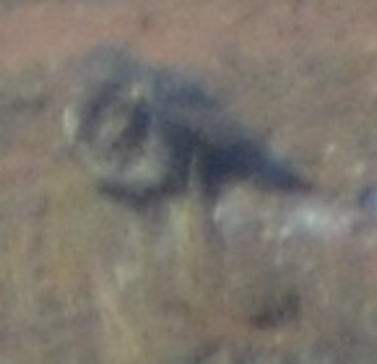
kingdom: Animalia
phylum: Chordata
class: Aves
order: Accipitriformes
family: Accipitridae
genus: Buteo
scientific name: Buteo buteo
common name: Common buzzard
